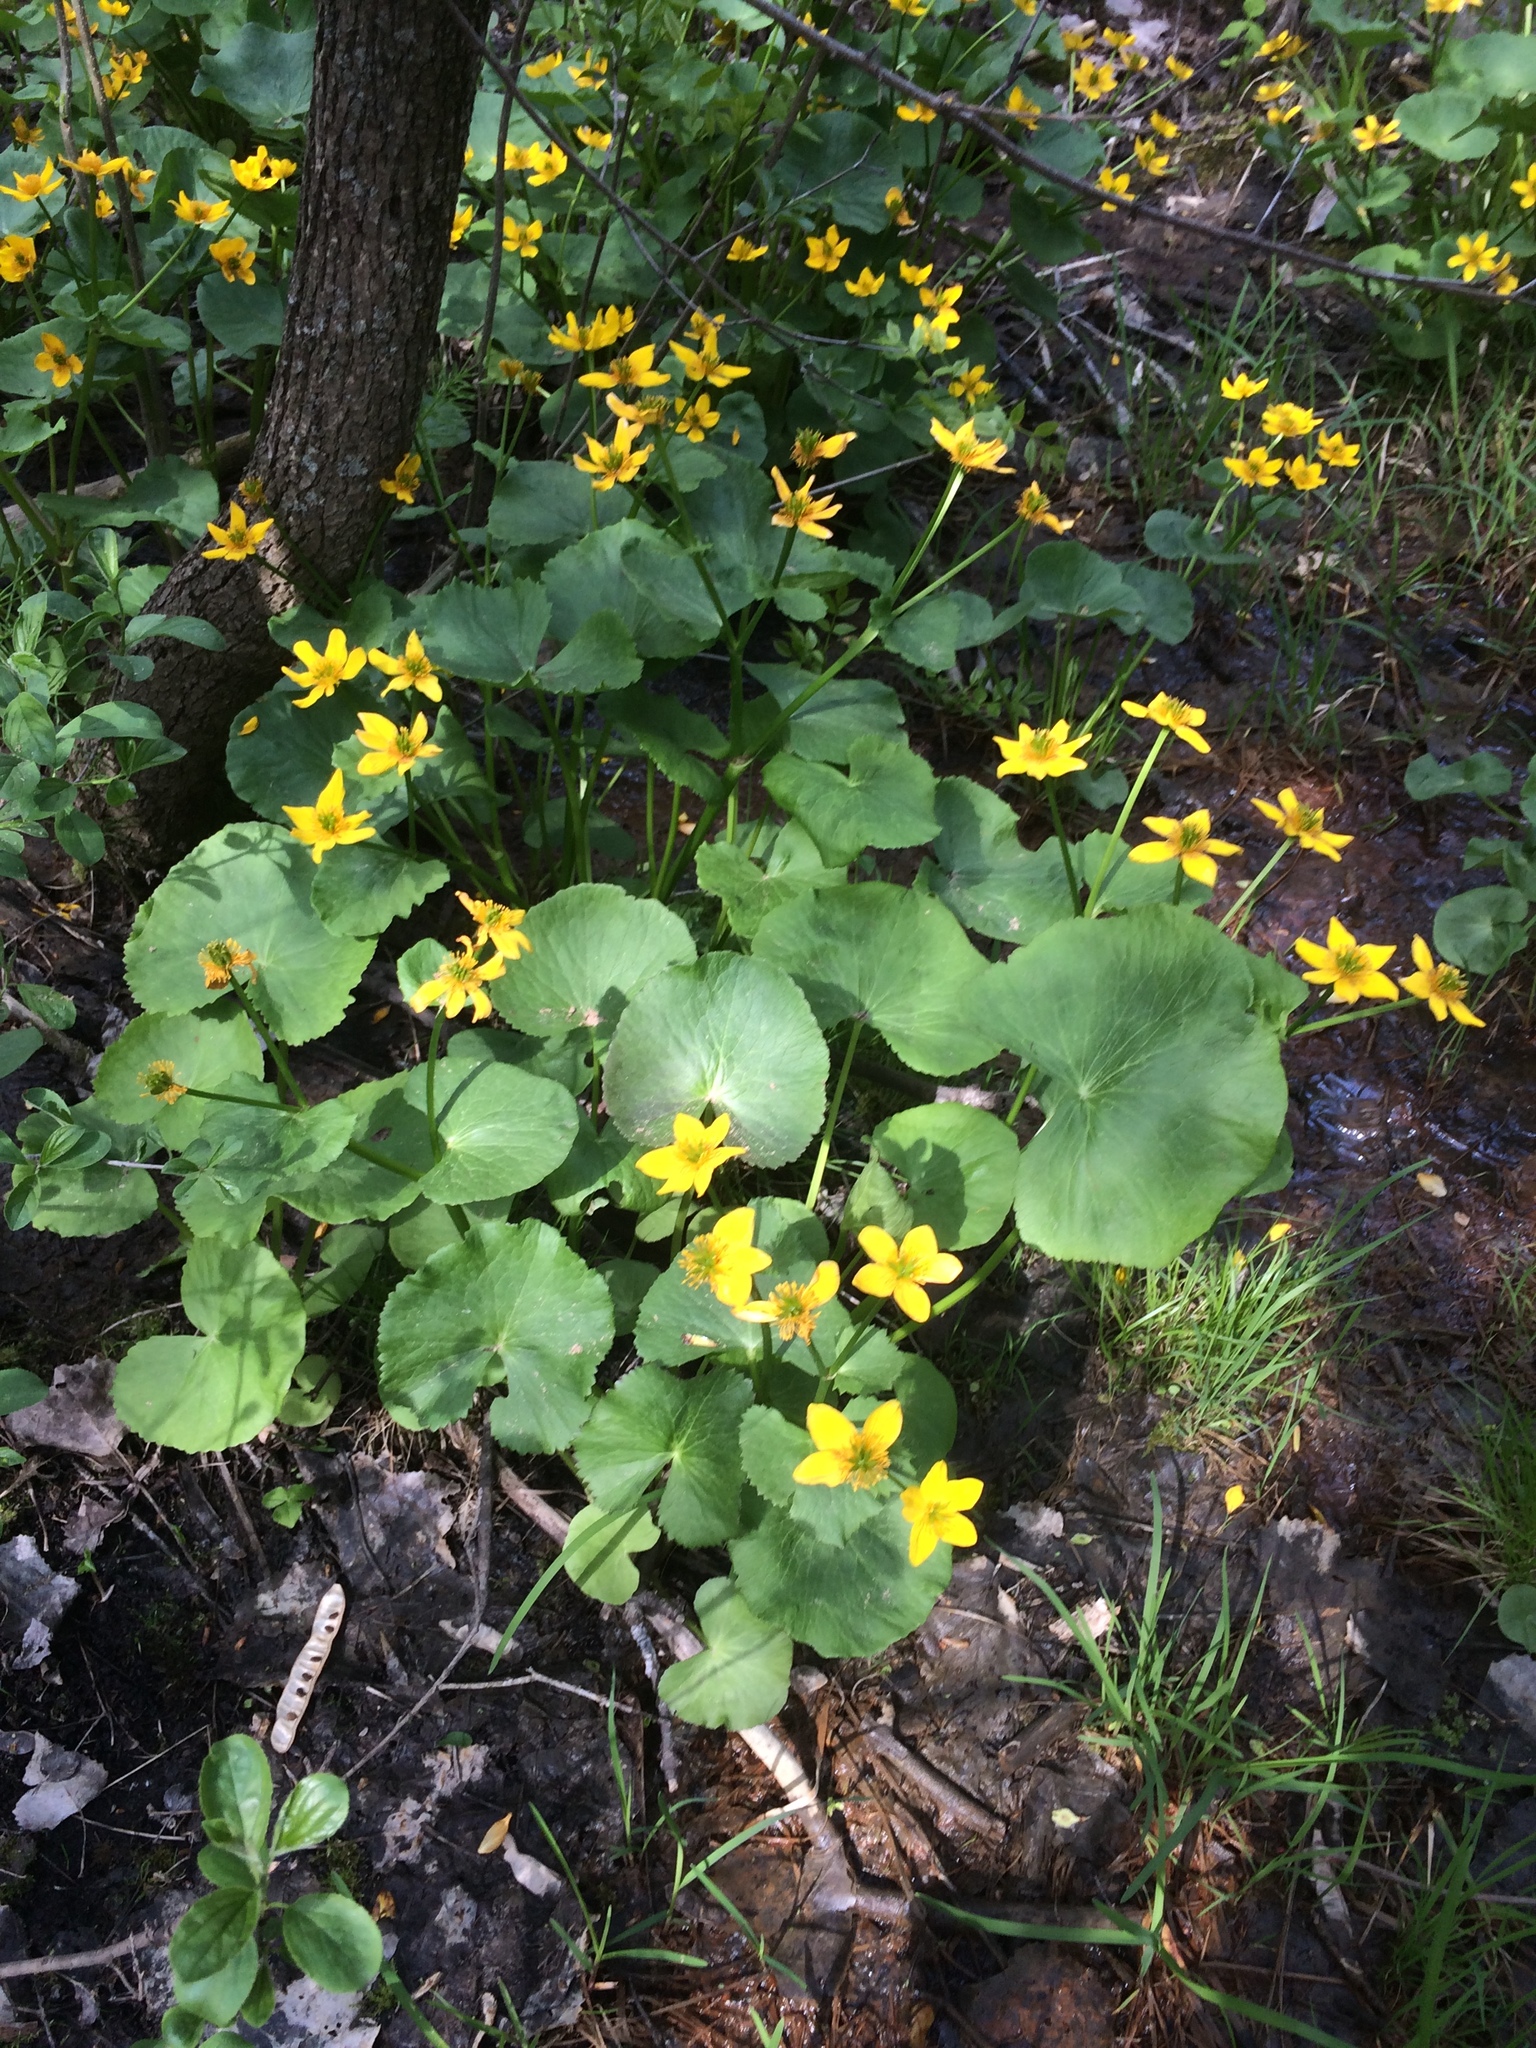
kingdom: Plantae
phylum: Tracheophyta
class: Magnoliopsida
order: Ranunculales
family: Ranunculaceae
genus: Caltha
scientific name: Caltha palustris
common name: Marsh marigold
